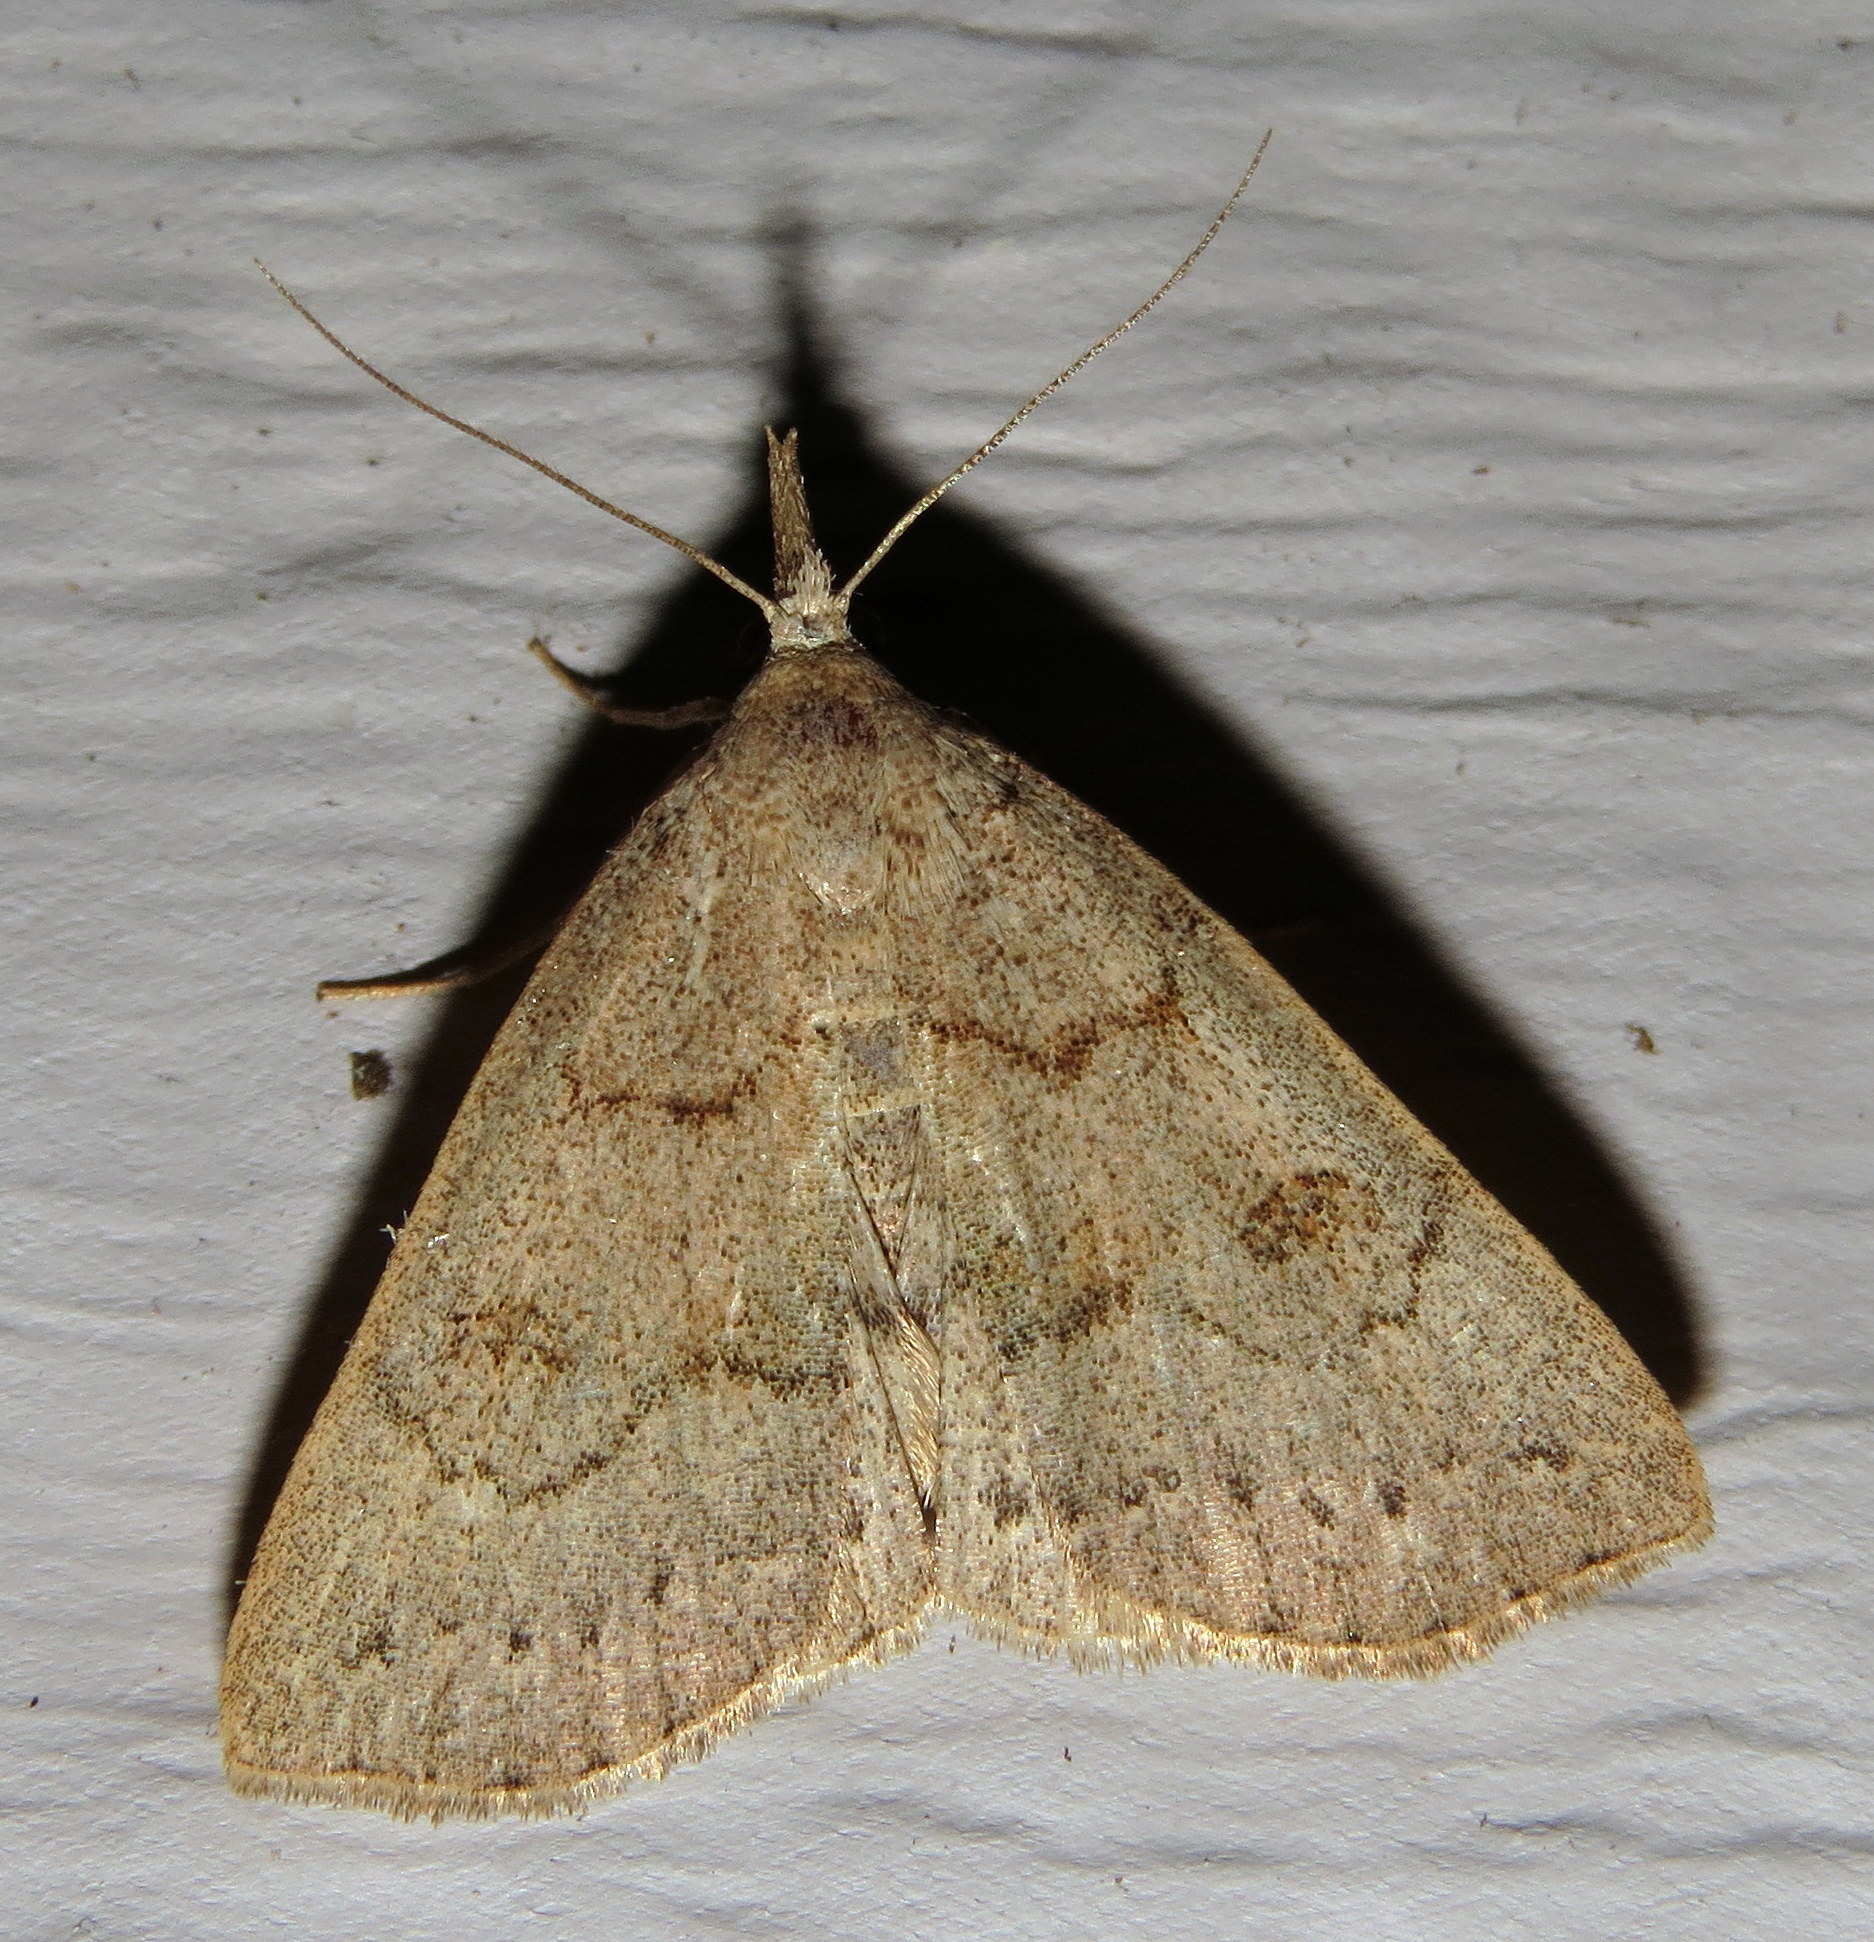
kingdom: Animalia
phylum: Arthropoda
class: Insecta
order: Lepidoptera
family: Erebidae
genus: Macrochilo
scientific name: Macrochilo morbidalis
